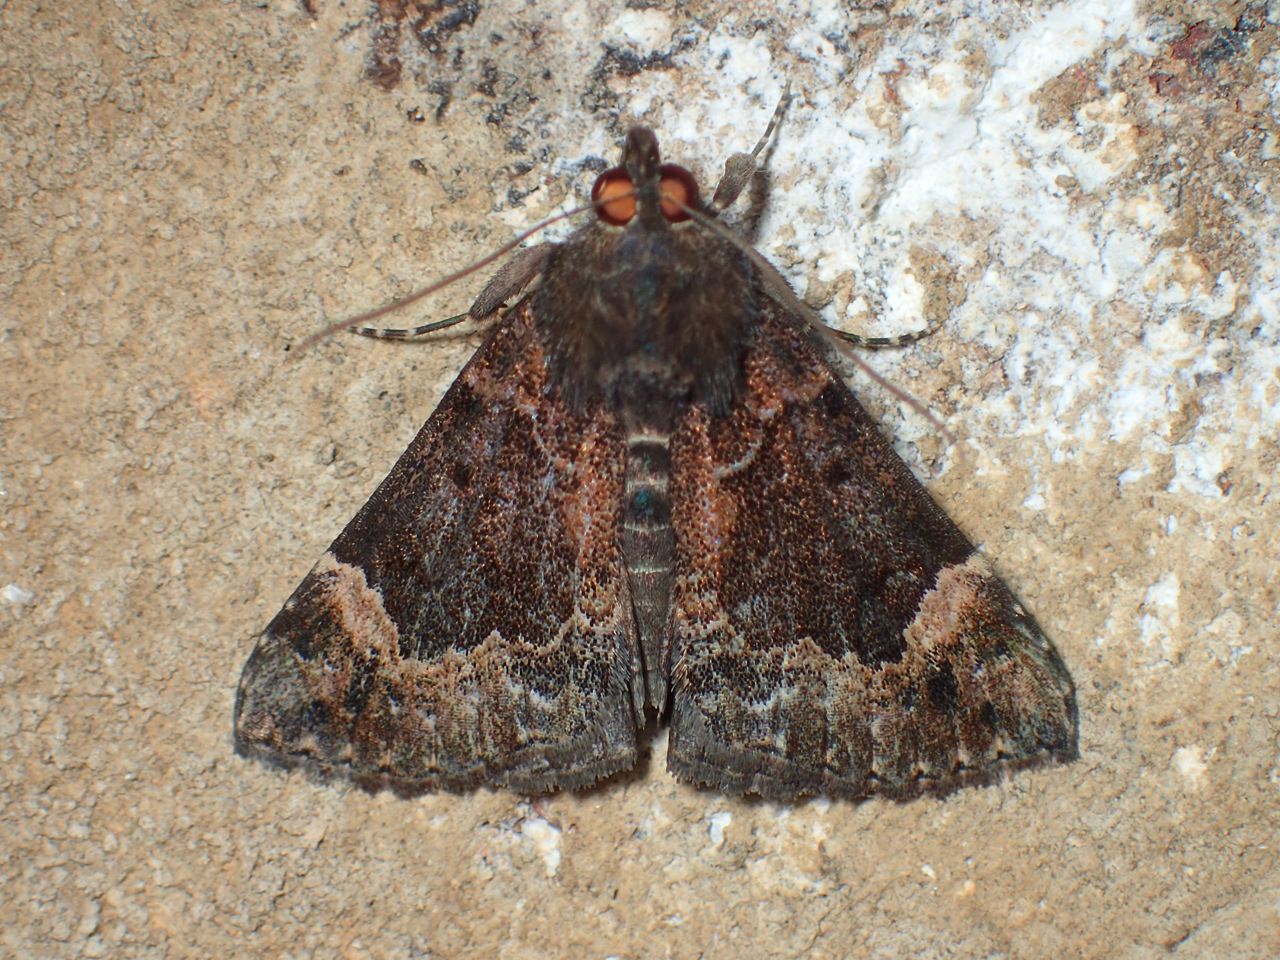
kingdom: Animalia
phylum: Arthropoda
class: Insecta
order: Lepidoptera
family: Erebidae
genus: Hypena
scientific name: Hypena palparia
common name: Mottled bomolocha moth
